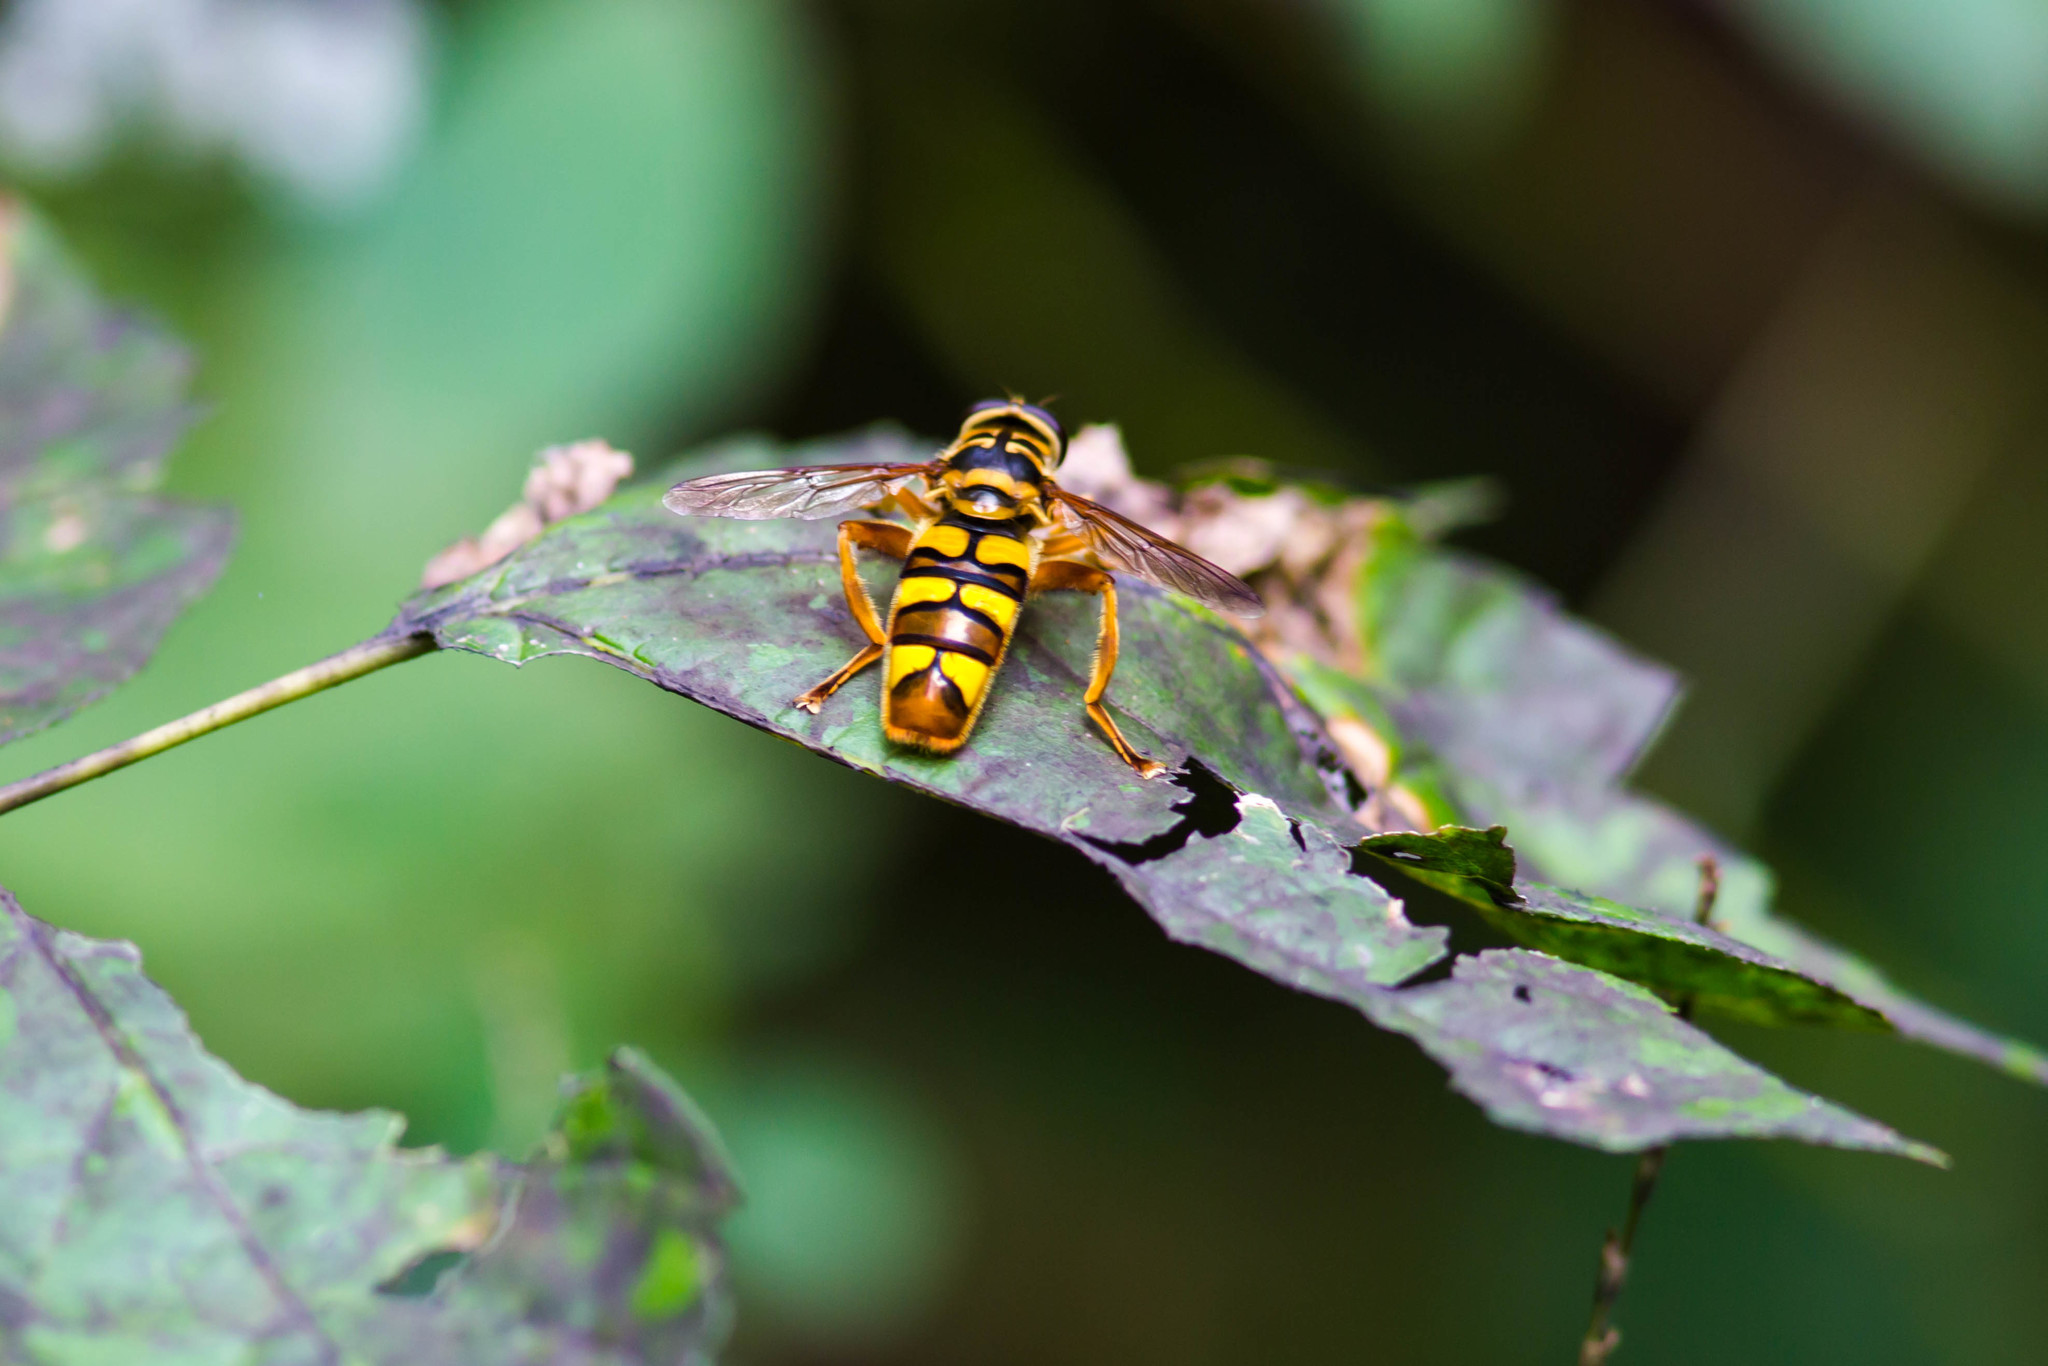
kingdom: Animalia
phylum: Arthropoda
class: Insecta
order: Diptera
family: Syrphidae
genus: Milesia
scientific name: Milesia virginiensis
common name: Virginia giant
